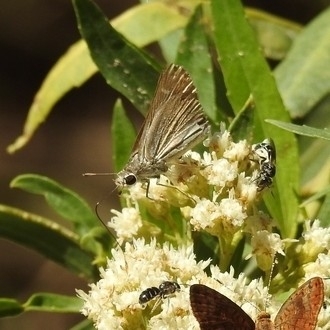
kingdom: Animalia
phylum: Arthropoda
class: Insecta
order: Lepidoptera
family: Hesperiidae
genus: Lerodea
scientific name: Lerodea eufala
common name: Eufala skipper
